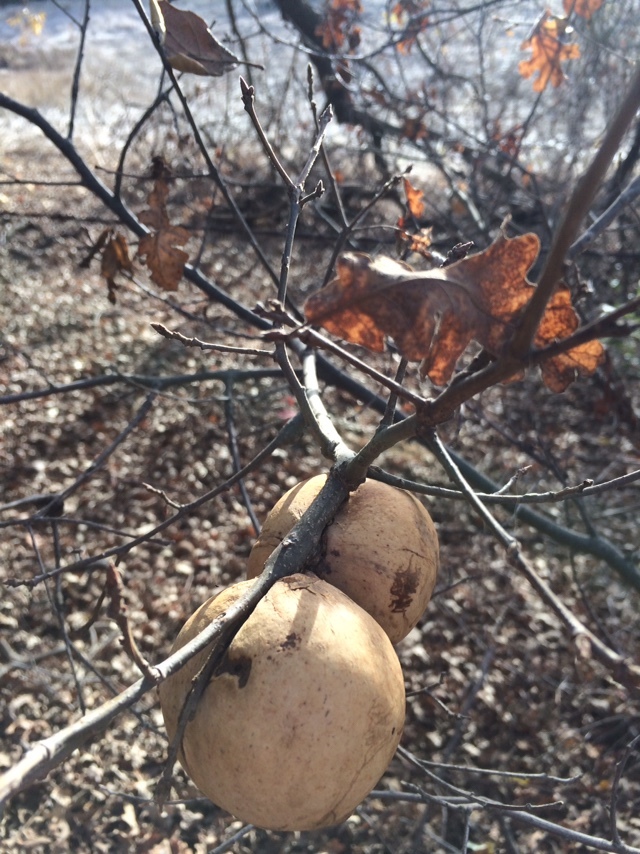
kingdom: Animalia
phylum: Arthropoda
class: Insecta
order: Hymenoptera
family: Cynipidae
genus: Andricus
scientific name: Andricus quercuscalifornicus
